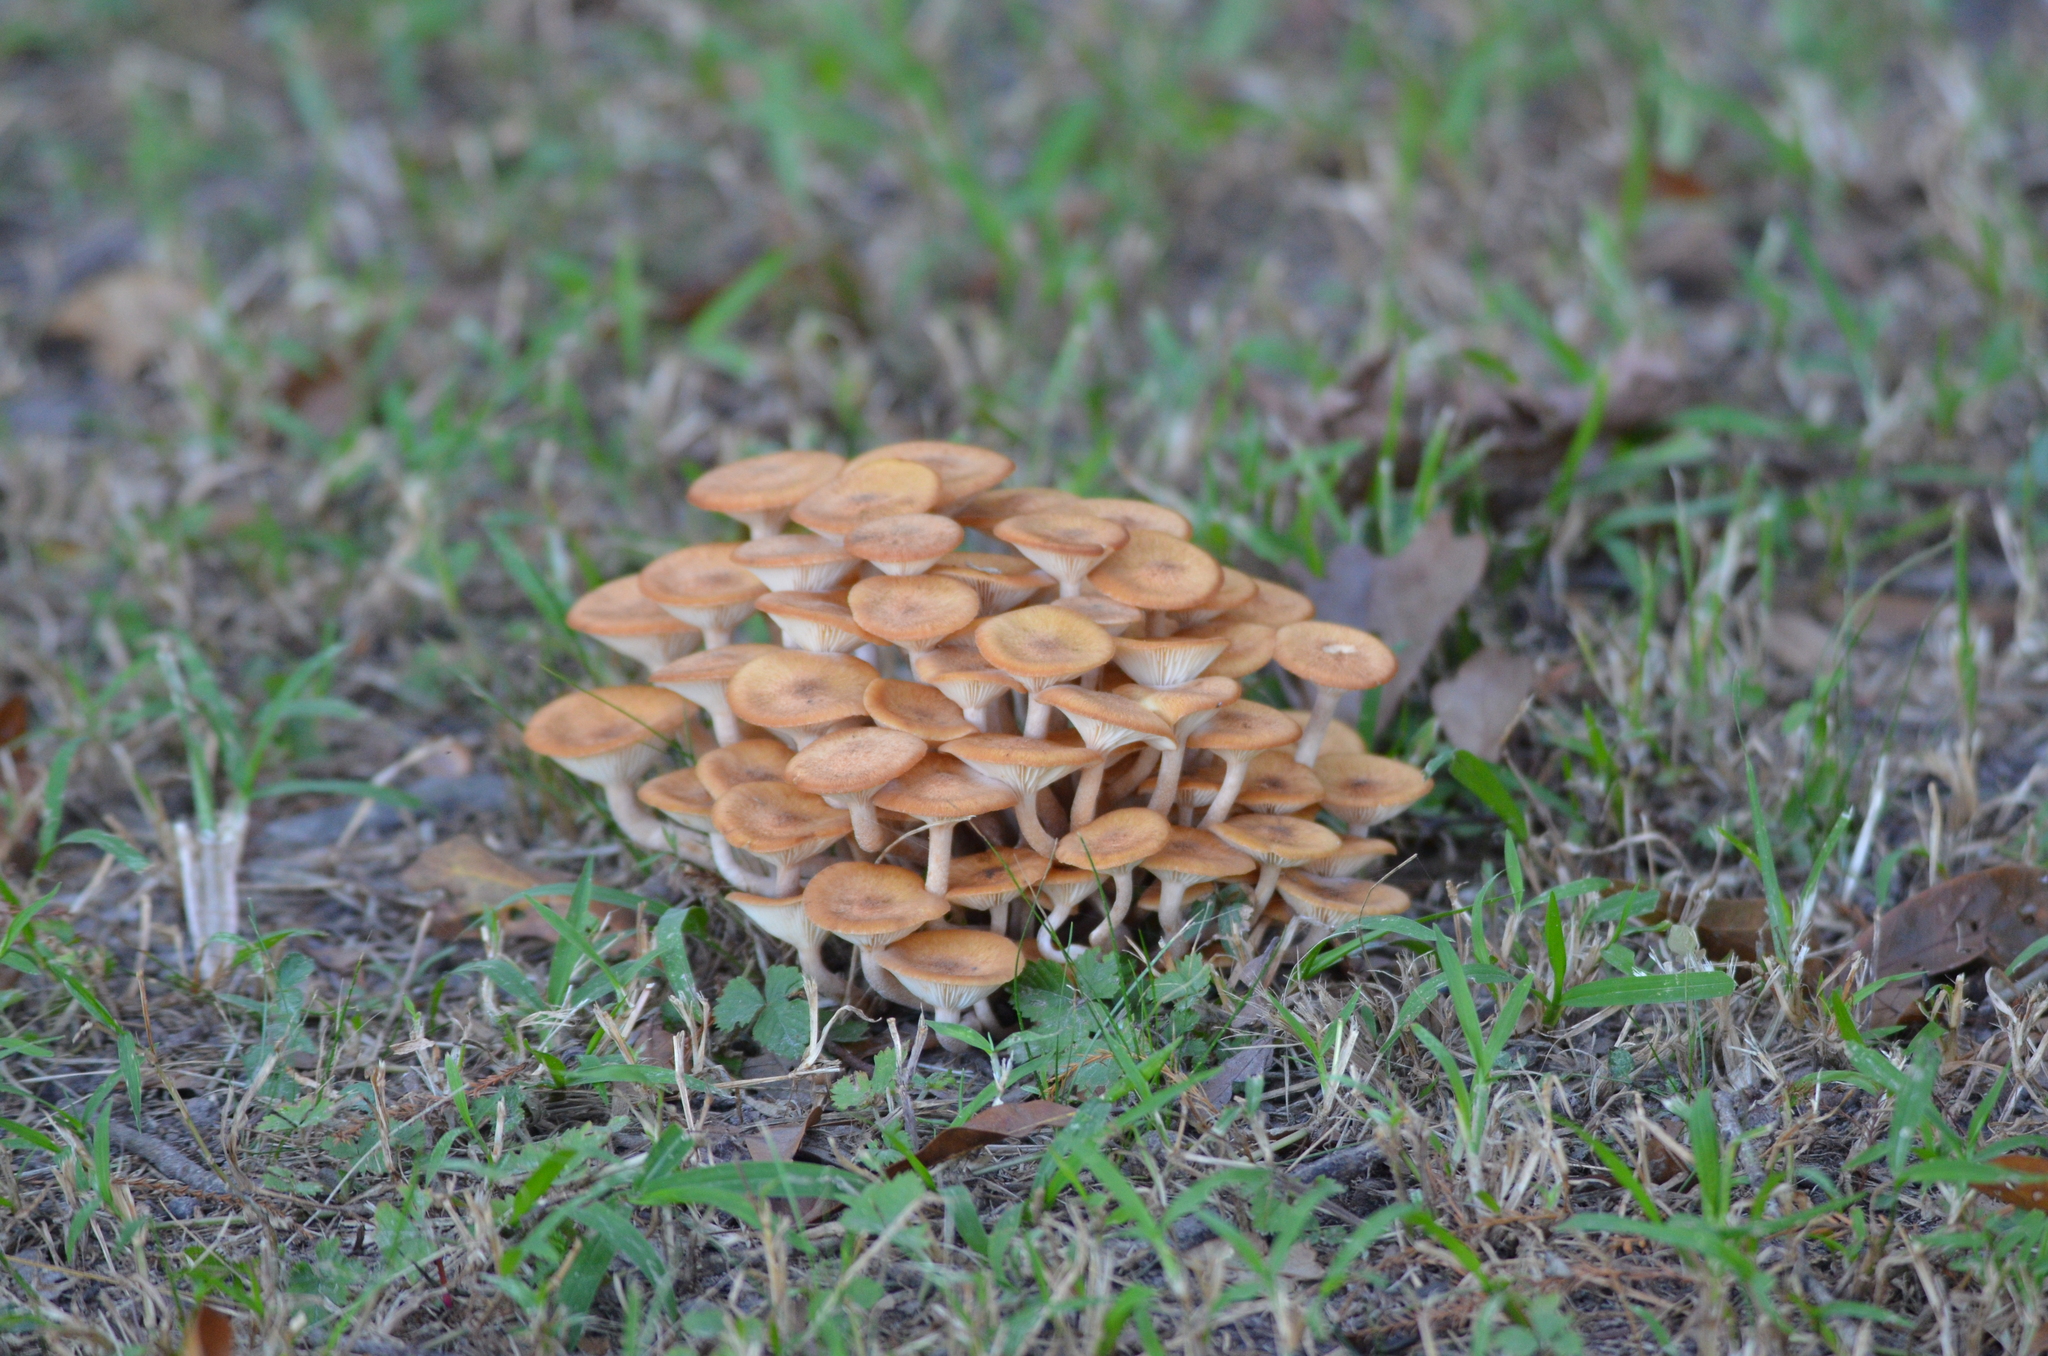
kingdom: Fungi
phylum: Basidiomycota
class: Agaricomycetes
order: Agaricales
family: Physalacriaceae
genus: Desarmillaria
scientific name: Desarmillaria caespitosa
